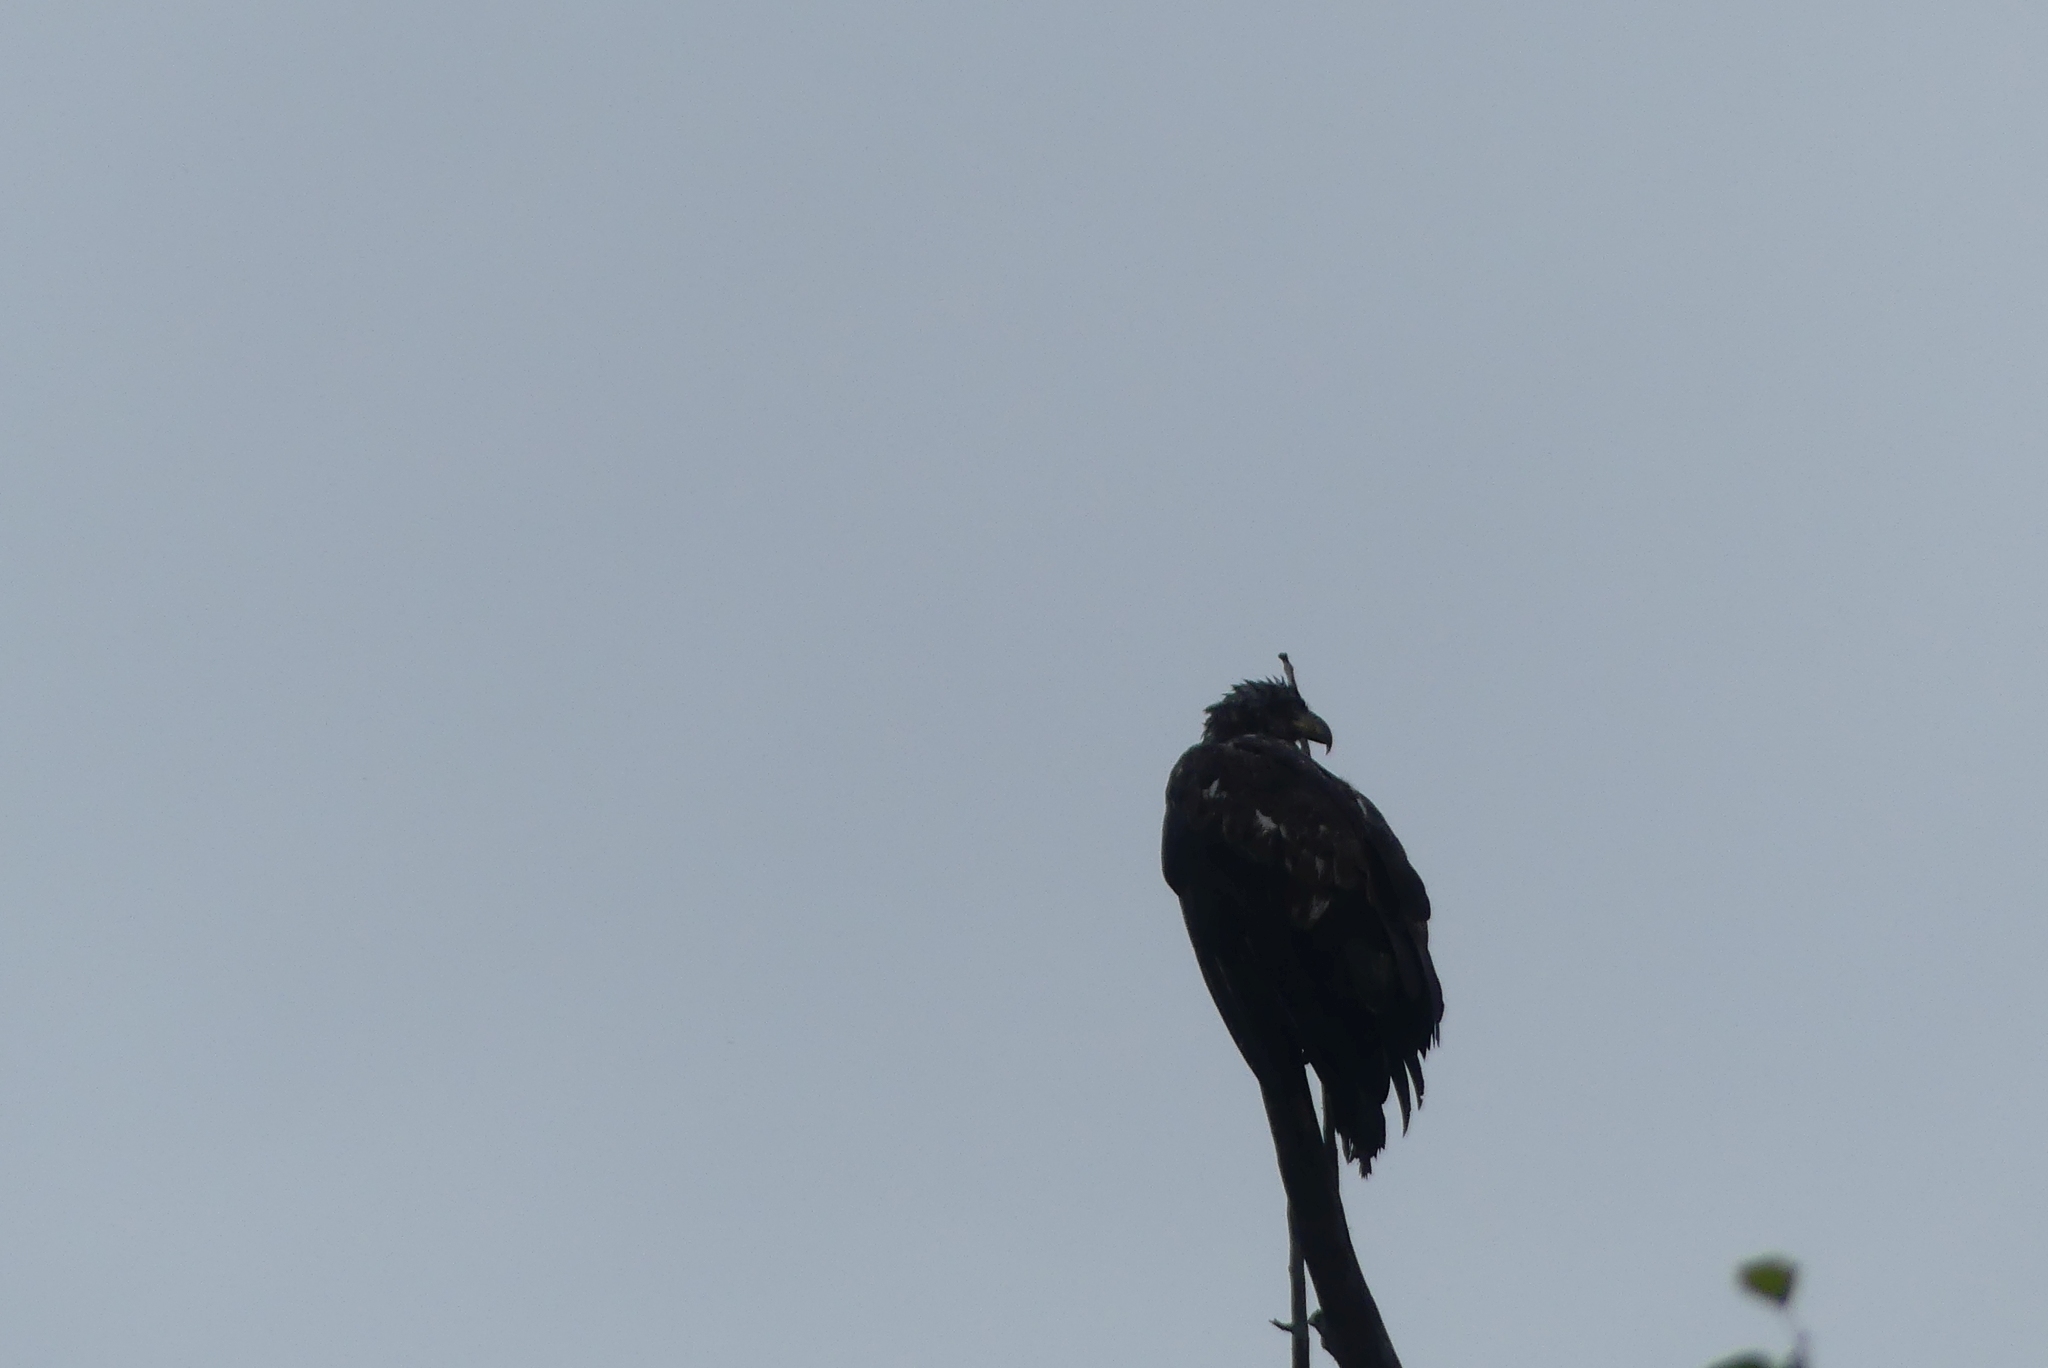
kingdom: Animalia
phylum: Chordata
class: Aves
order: Accipitriformes
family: Accipitridae
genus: Haliaeetus
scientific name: Haliaeetus leucocephalus
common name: Bald eagle
